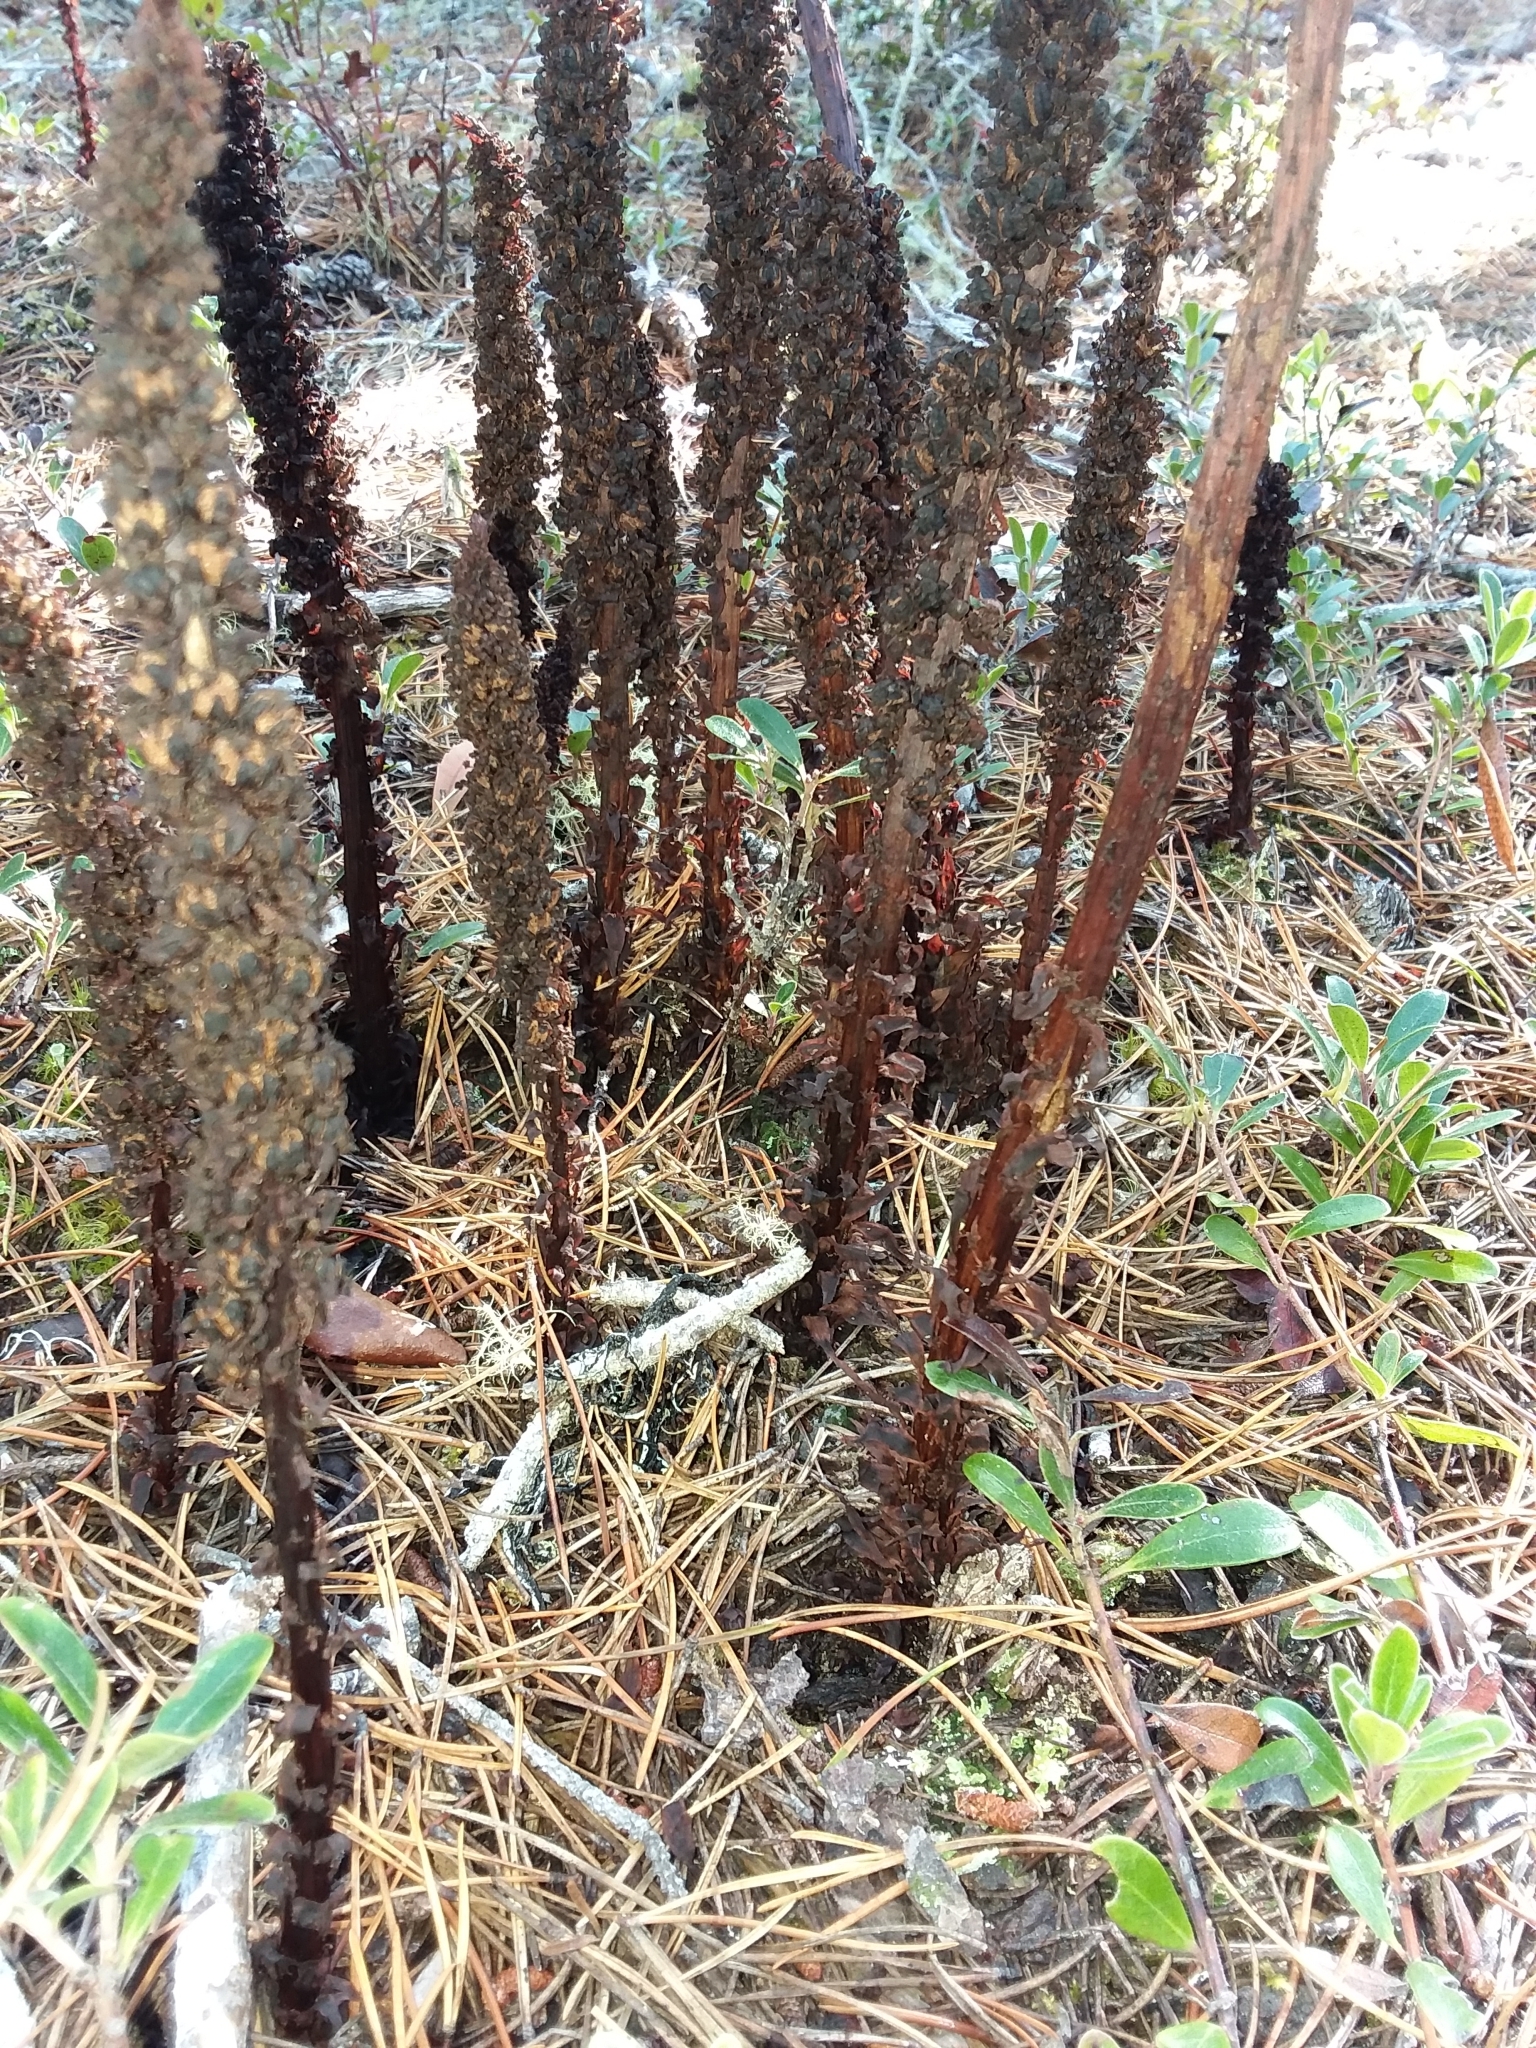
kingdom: Plantae
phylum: Tracheophyta
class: Magnoliopsida
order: Ericales
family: Ericaceae
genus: Allotropa
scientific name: Allotropa virgata
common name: Candy-striped allotropa
